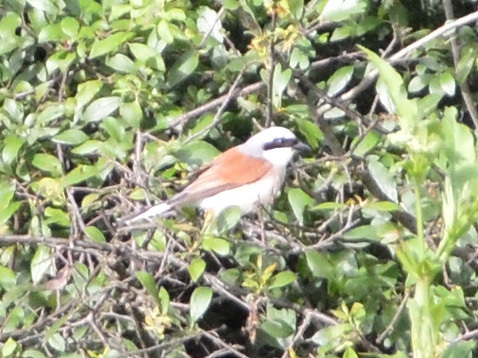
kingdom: Animalia
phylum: Chordata
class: Aves
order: Passeriformes
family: Laniidae
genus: Lanius
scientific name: Lanius collurio
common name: Red-backed shrike
